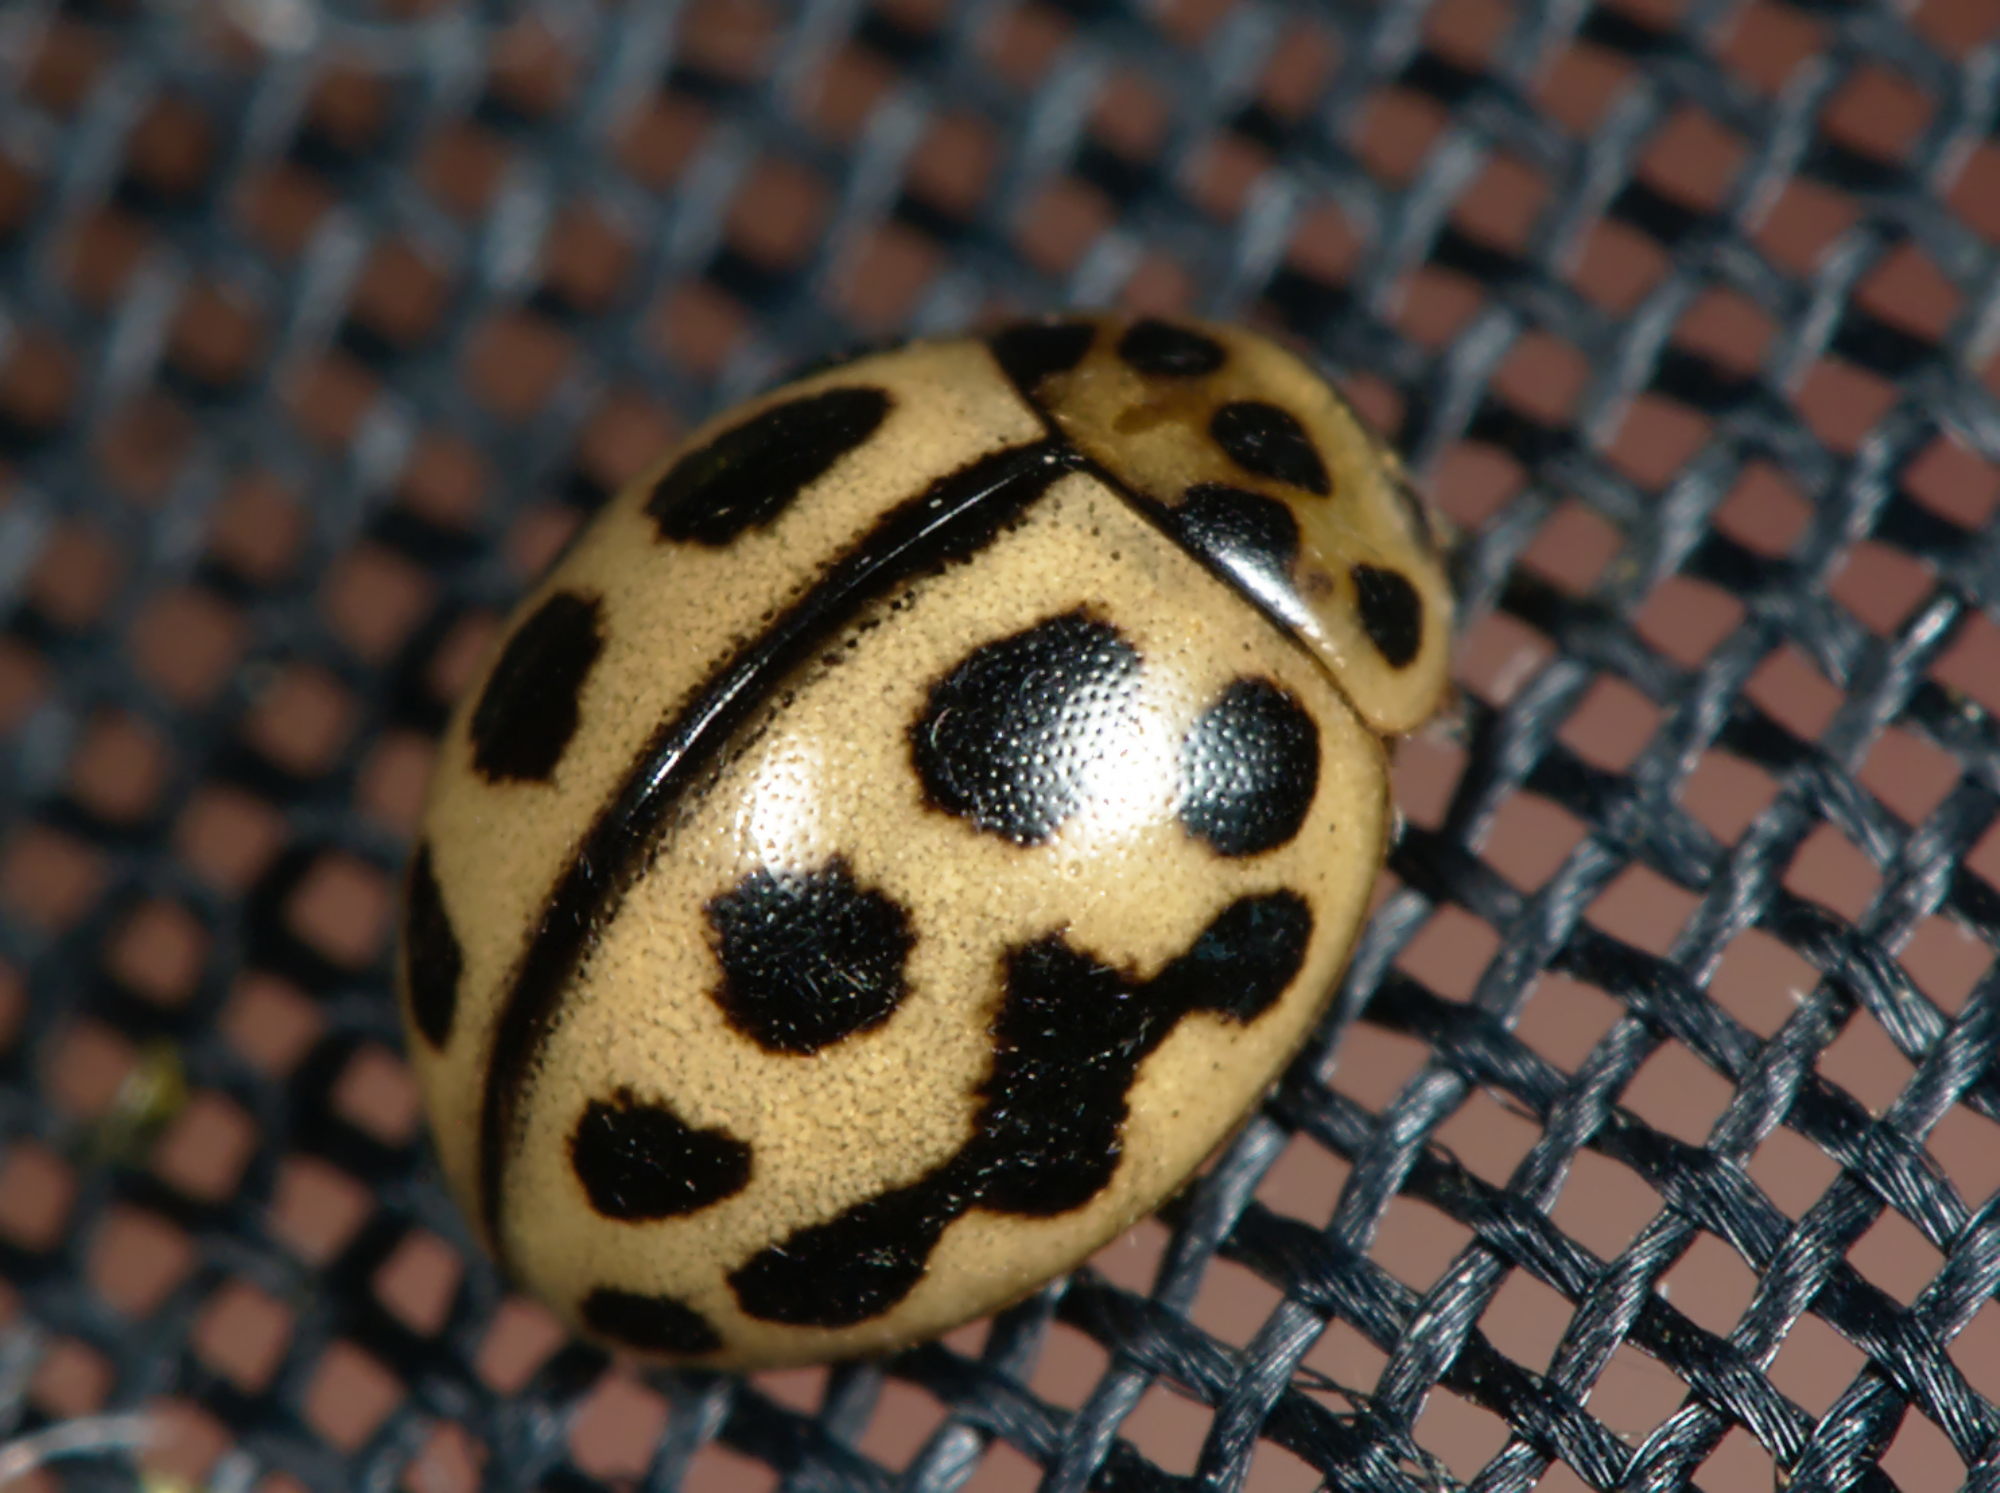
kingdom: Animalia
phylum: Arthropoda
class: Insecta
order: Coleoptera
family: Coccinellidae
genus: Tytthaspis
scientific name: Tytthaspis sedecimpunctata
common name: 16-spot ladybird
